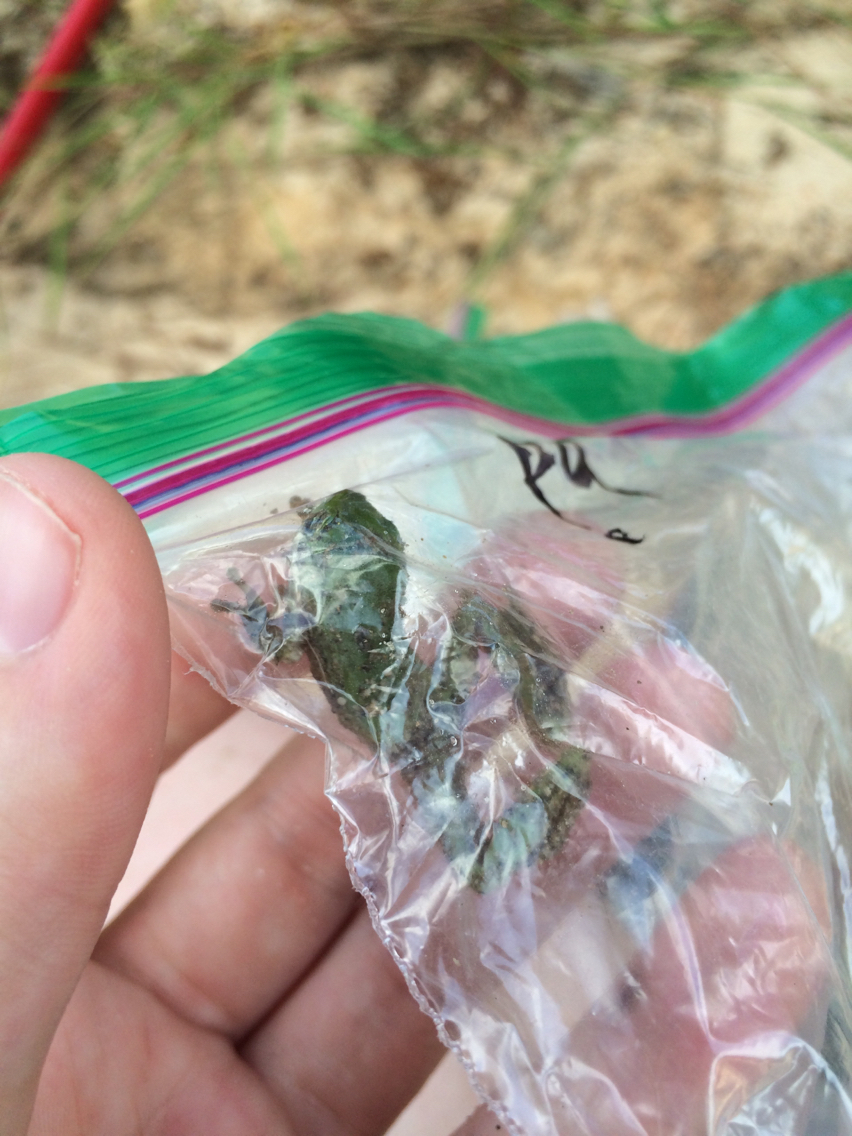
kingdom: Animalia
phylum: Chordata
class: Amphibia
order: Anura
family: Hylidae
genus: Dryophytes
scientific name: Dryophytes cinereus
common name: Green treefrog
